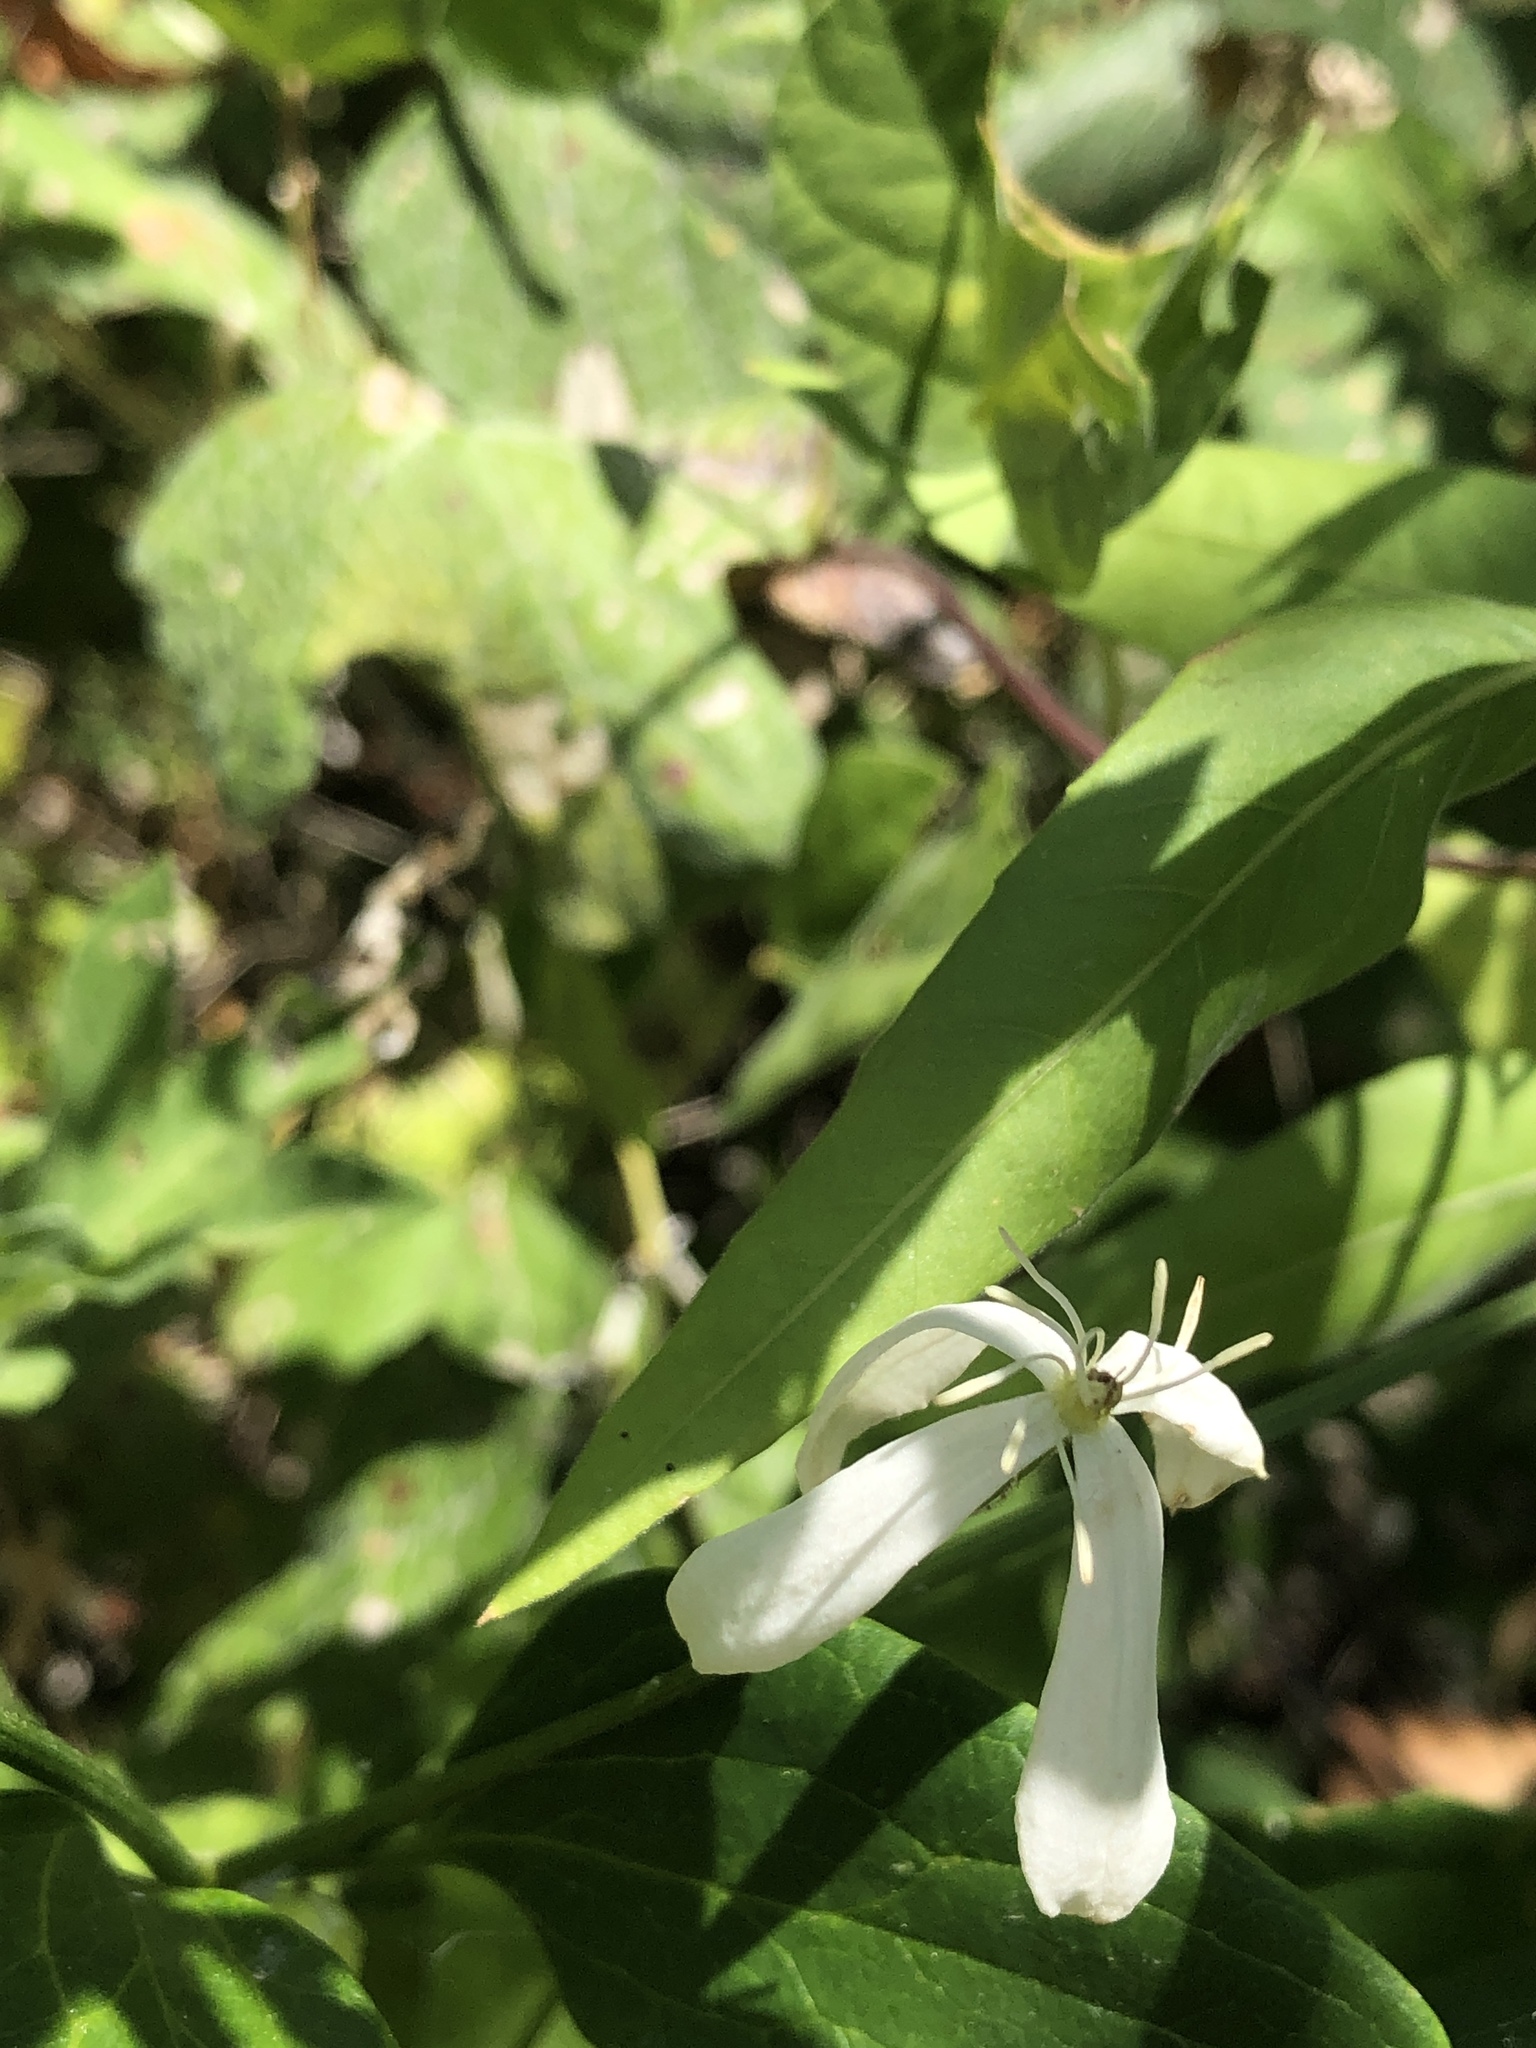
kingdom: Plantae
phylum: Tracheophyta
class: Magnoliopsida
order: Ranunculales
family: Ranunculaceae
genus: Clematis
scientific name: Clematis terniflora
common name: Sweet autumn clematis
